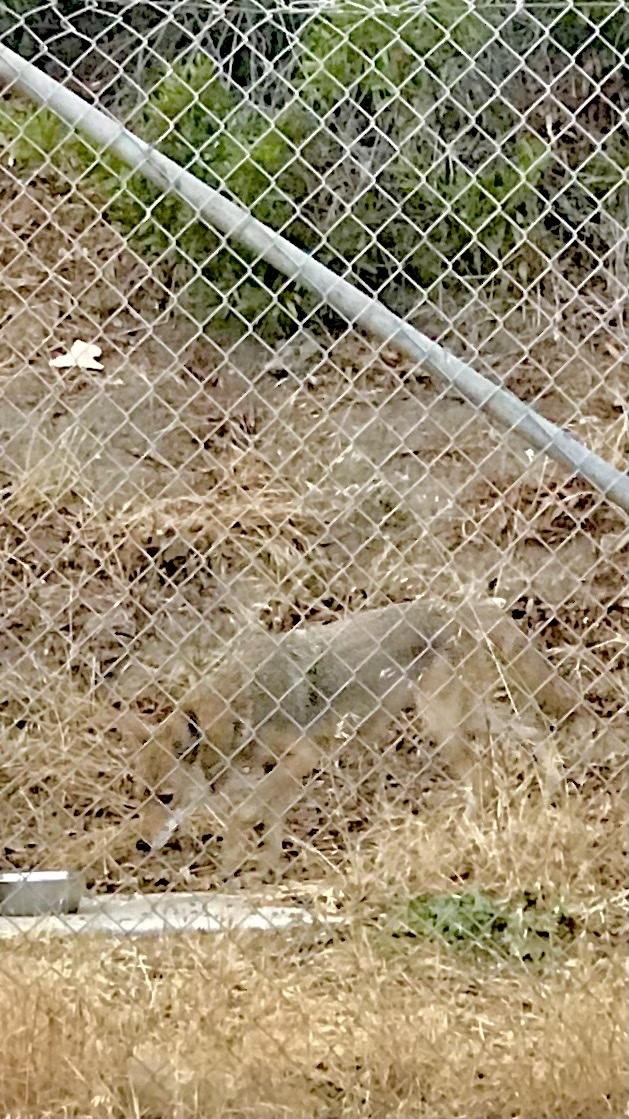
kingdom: Animalia
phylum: Chordata
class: Mammalia
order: Carnivora
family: Canidae
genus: Canis
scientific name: Canis latrans
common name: Coyote
